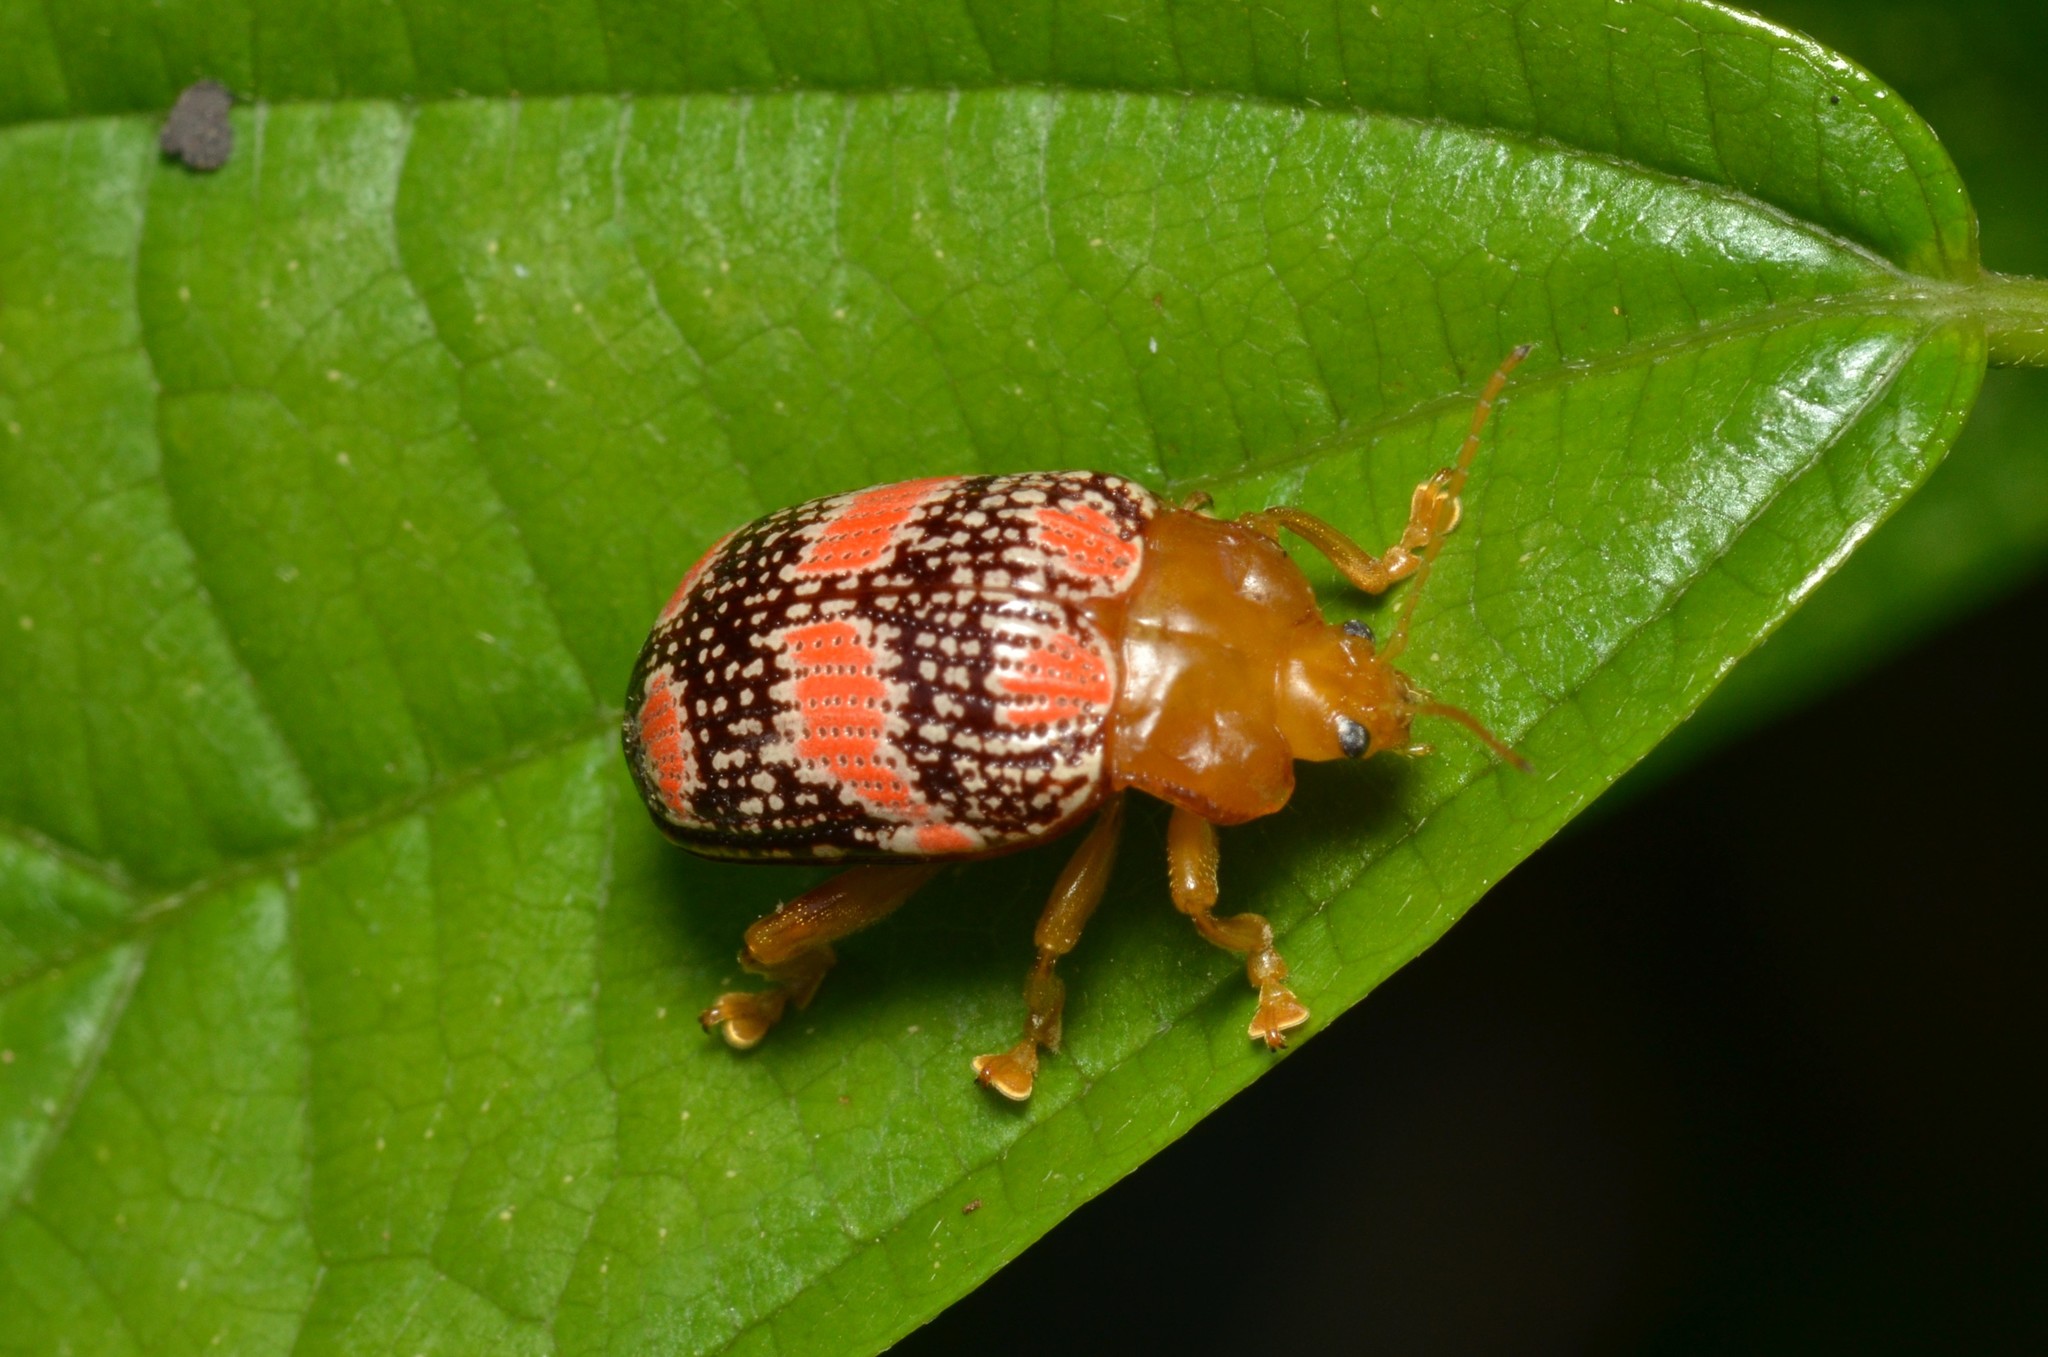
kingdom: Animalia
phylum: Arthropoda
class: Insecta
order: Coleoptera
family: Chrysomelidae
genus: Podontia
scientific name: Podontia
